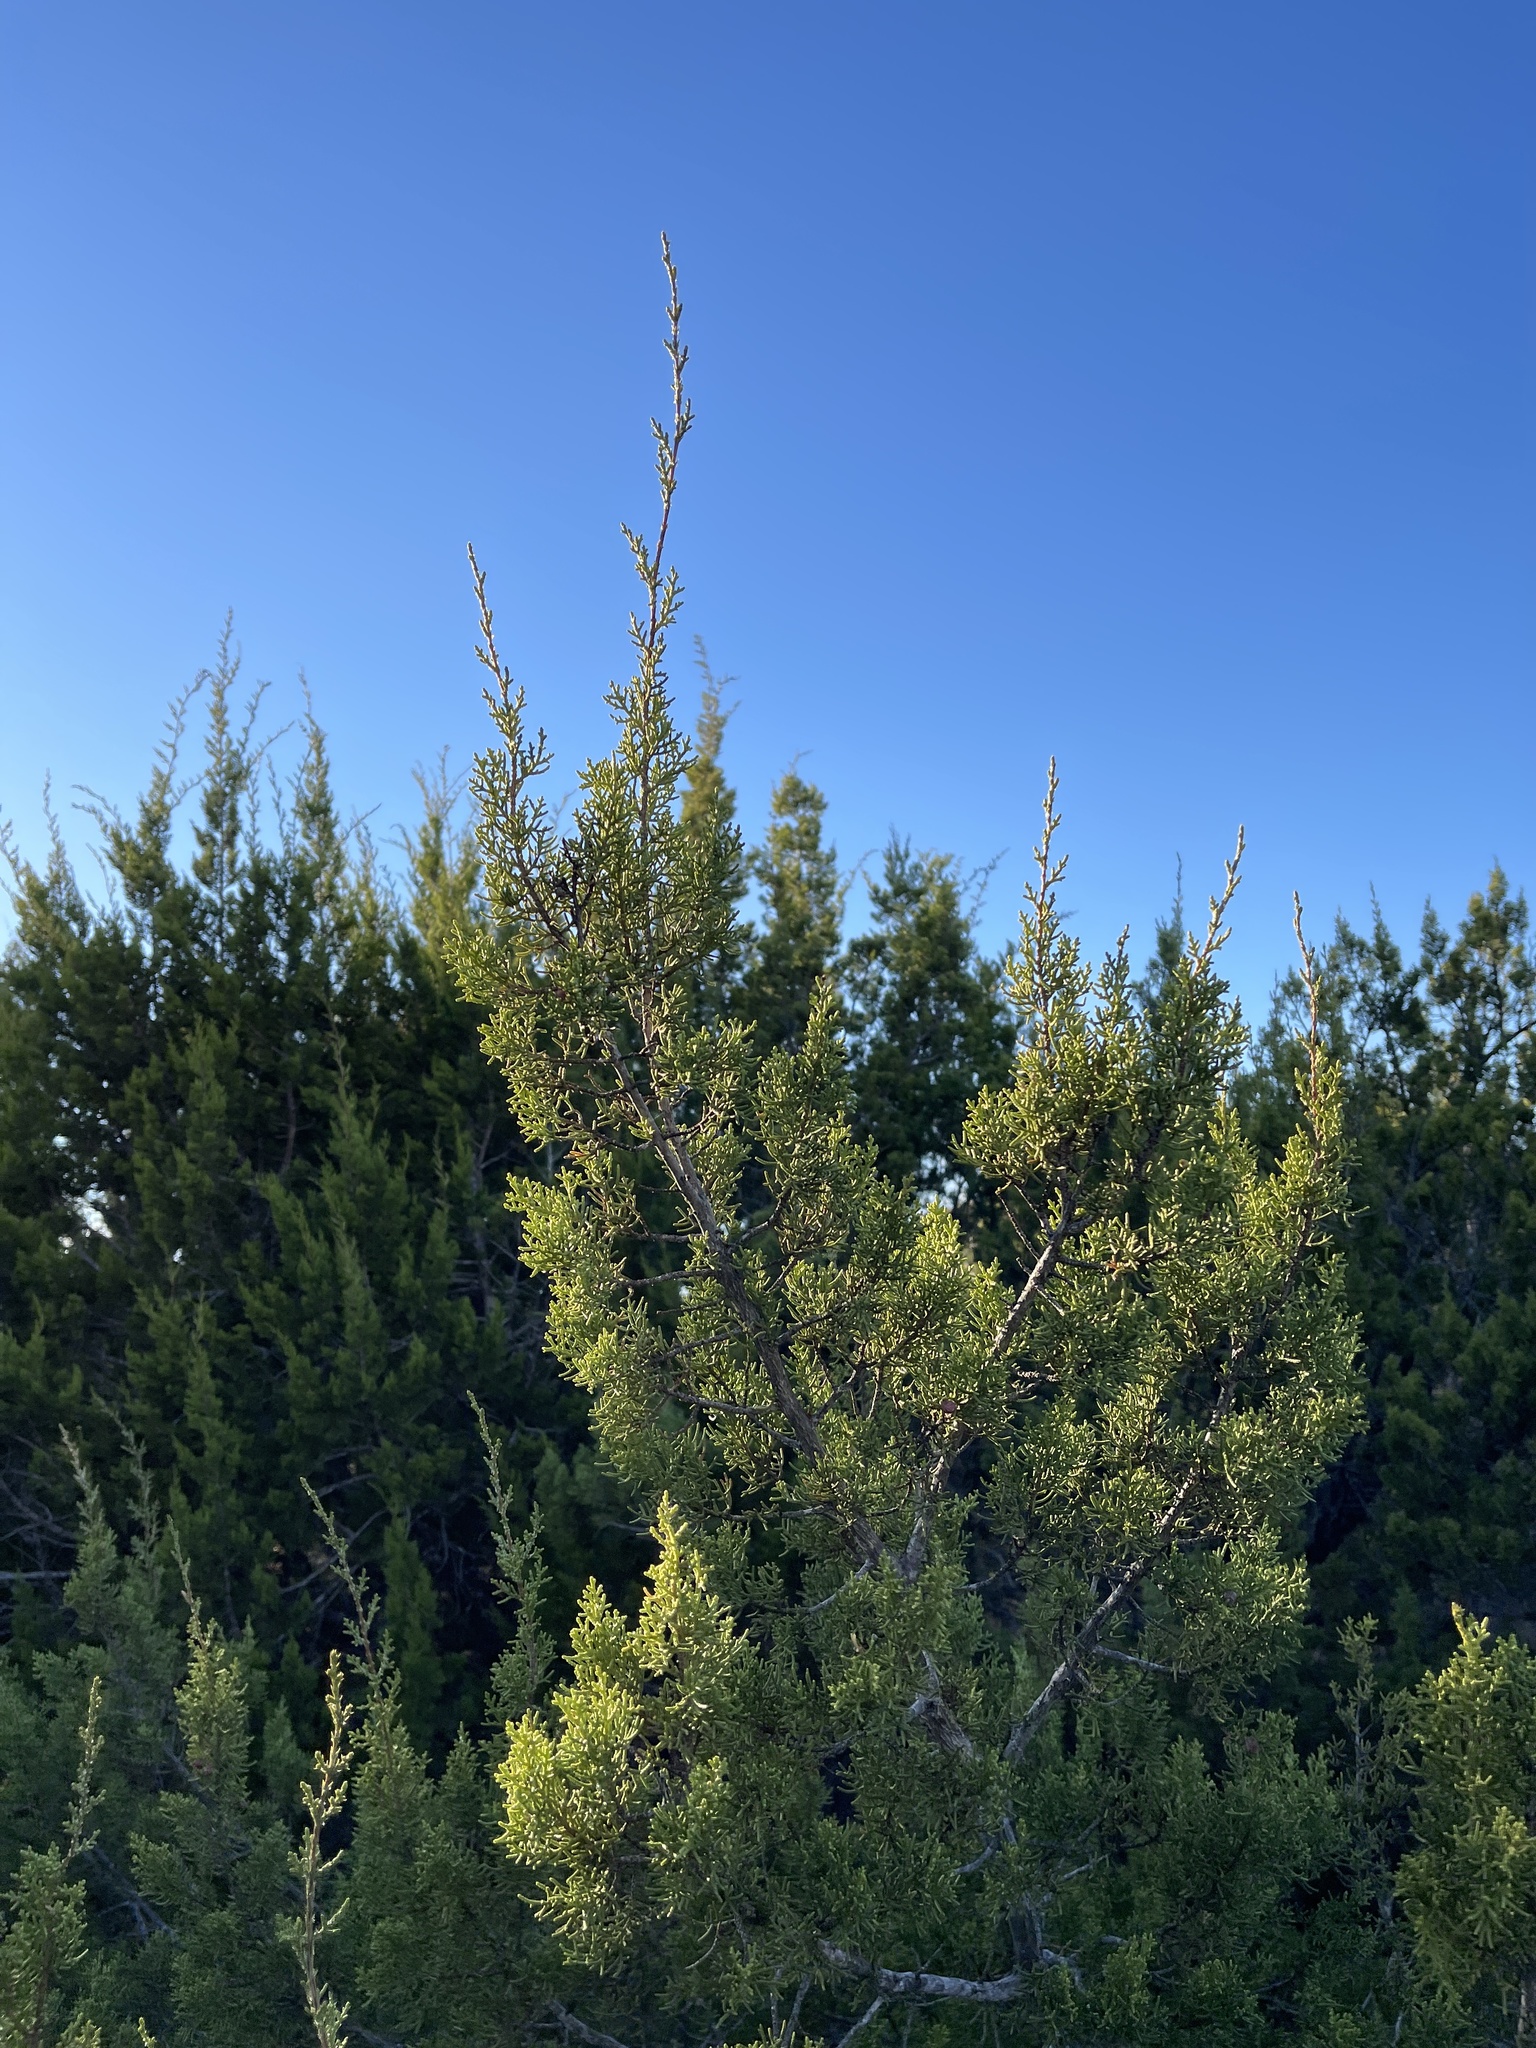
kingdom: Plantae
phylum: Tracheophyta
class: Pinopsida
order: Pinales
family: Cupressaceae
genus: Juniperus
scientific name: Juniperus ashei
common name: Mexican juniper
